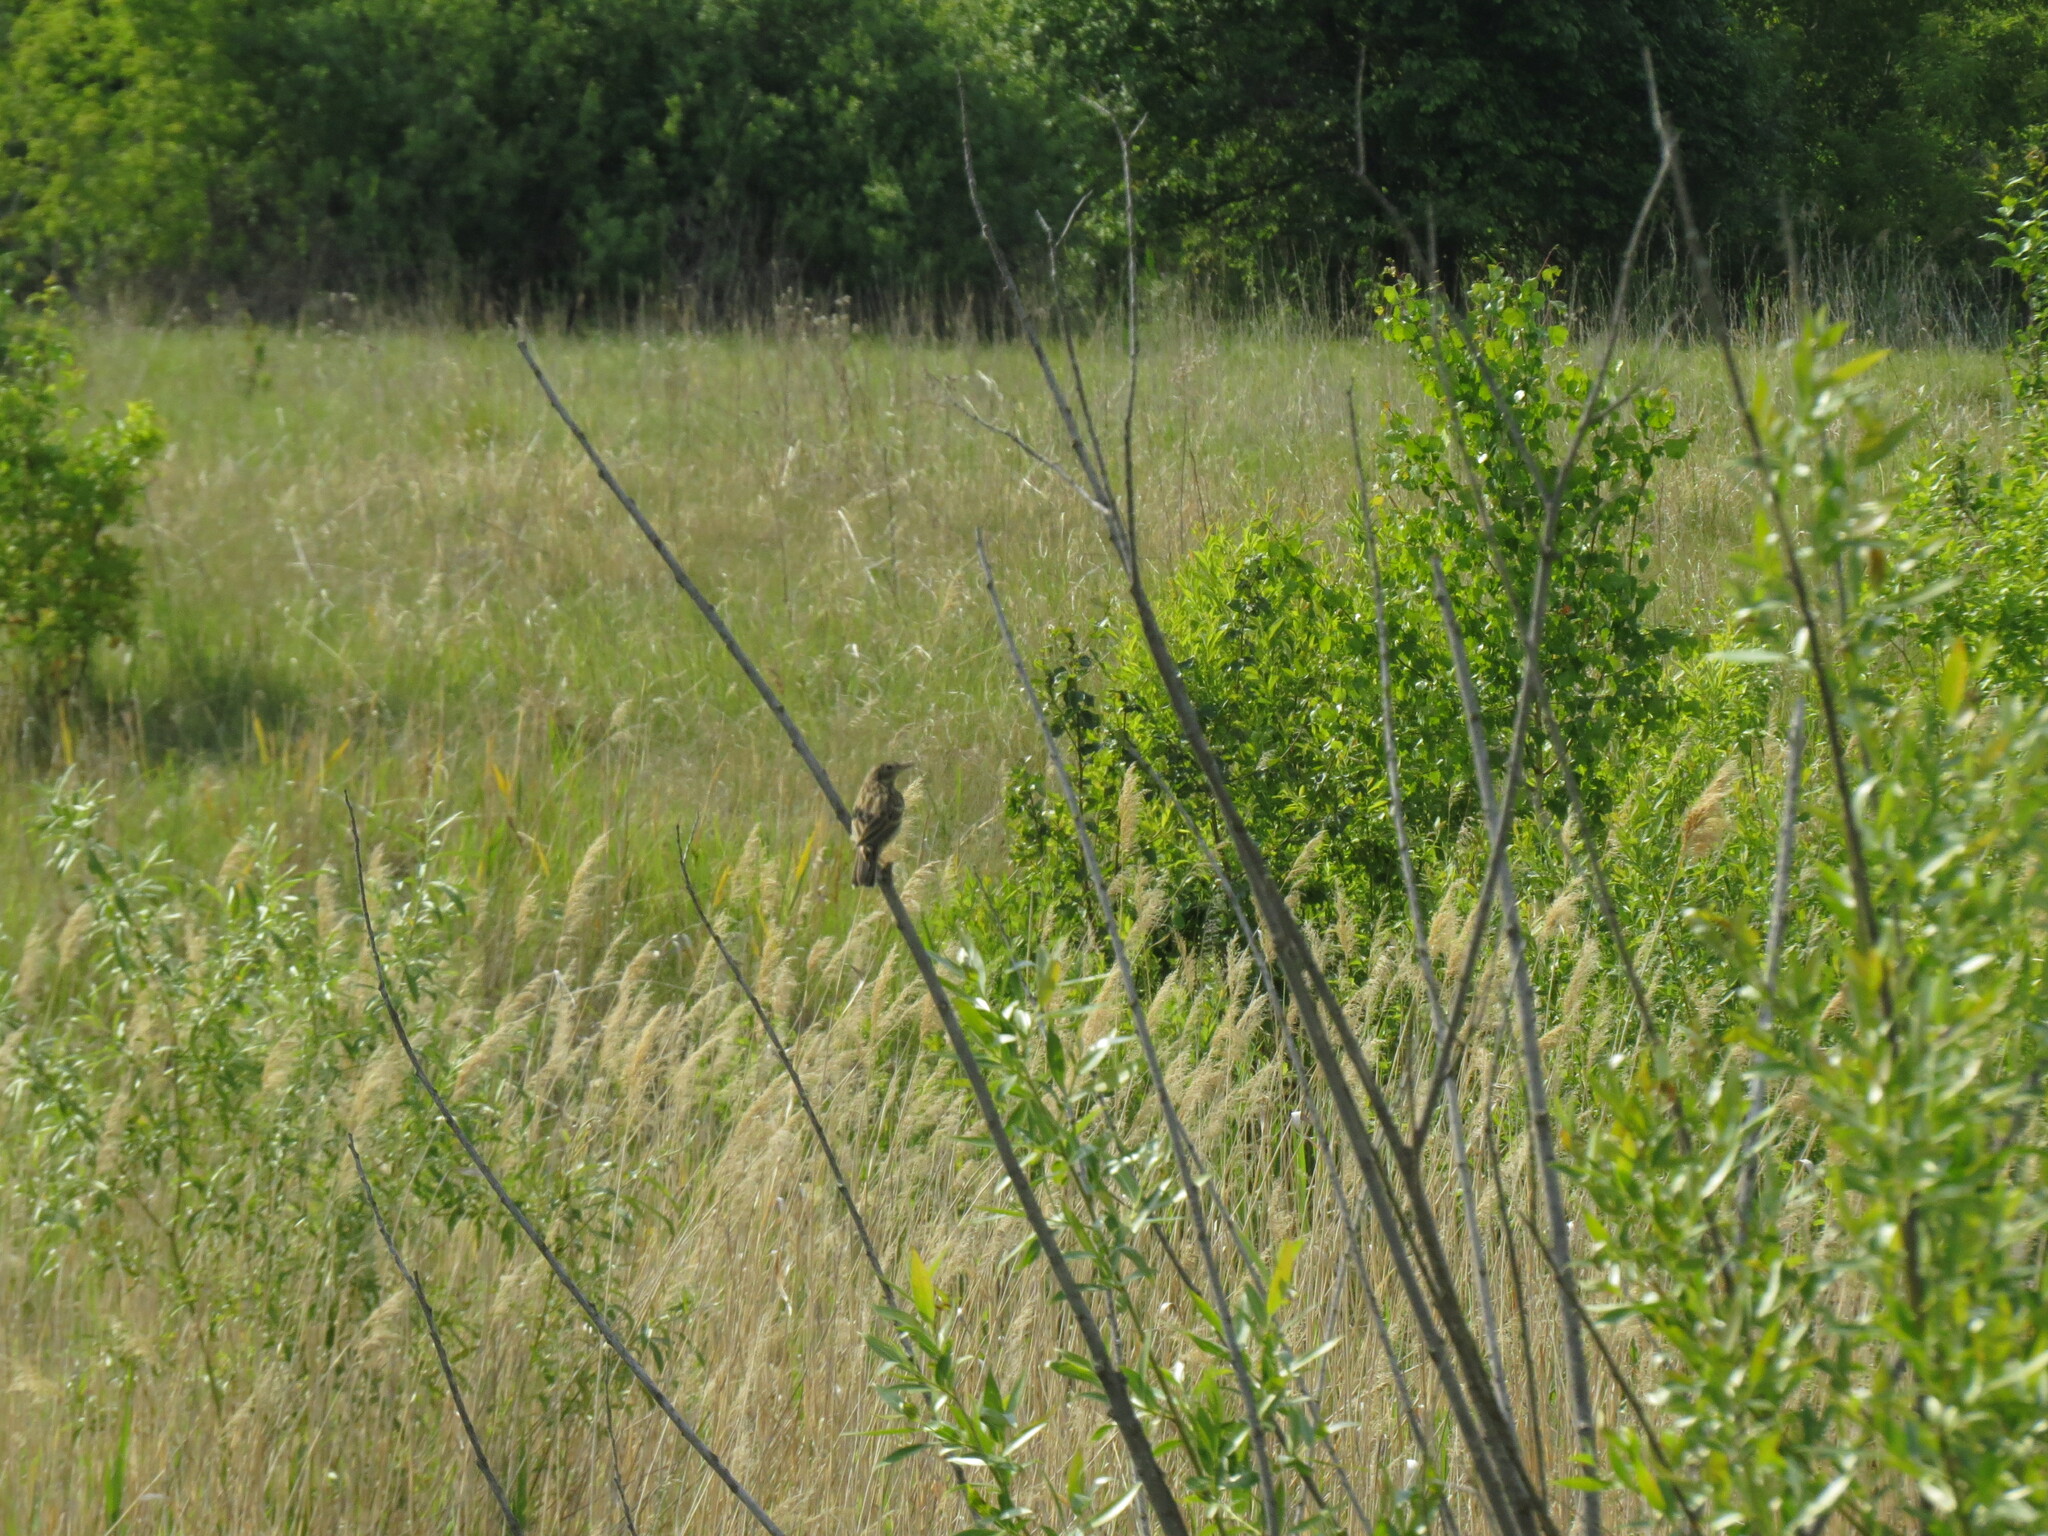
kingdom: Animalia
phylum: Chordata
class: Aves
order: Passeriformes
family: Motacillidae
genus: Anthus
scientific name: Anthus trivialis
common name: Tree pipit
